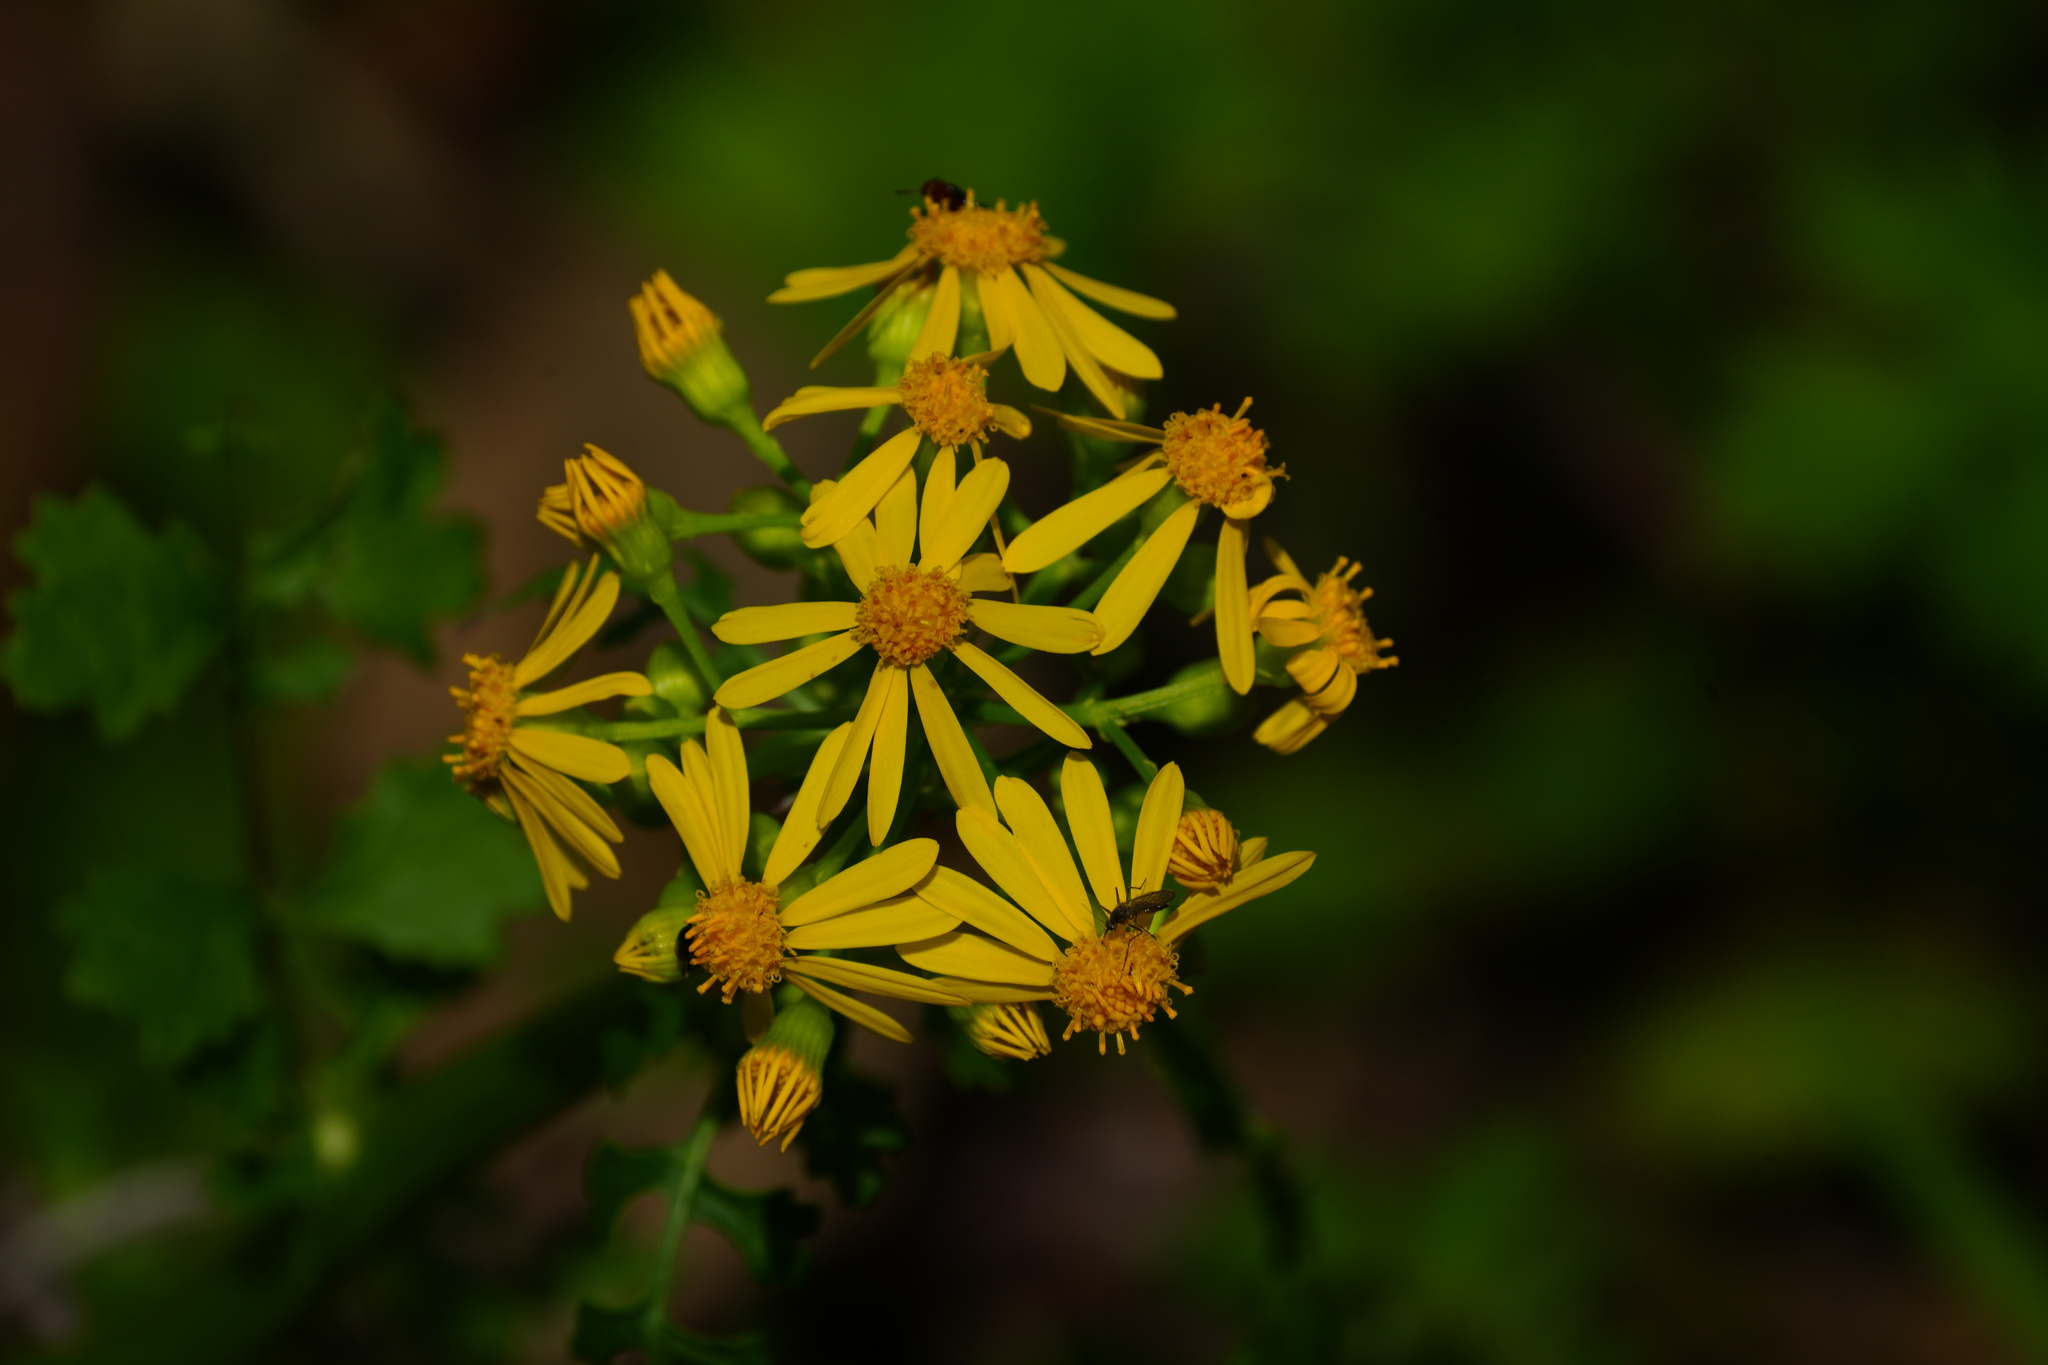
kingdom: Plantae
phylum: Tracheophyta
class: Magnoliopsida
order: Asterales
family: Asteraceae
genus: Packera
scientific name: Packera glabella
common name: Butterweed
